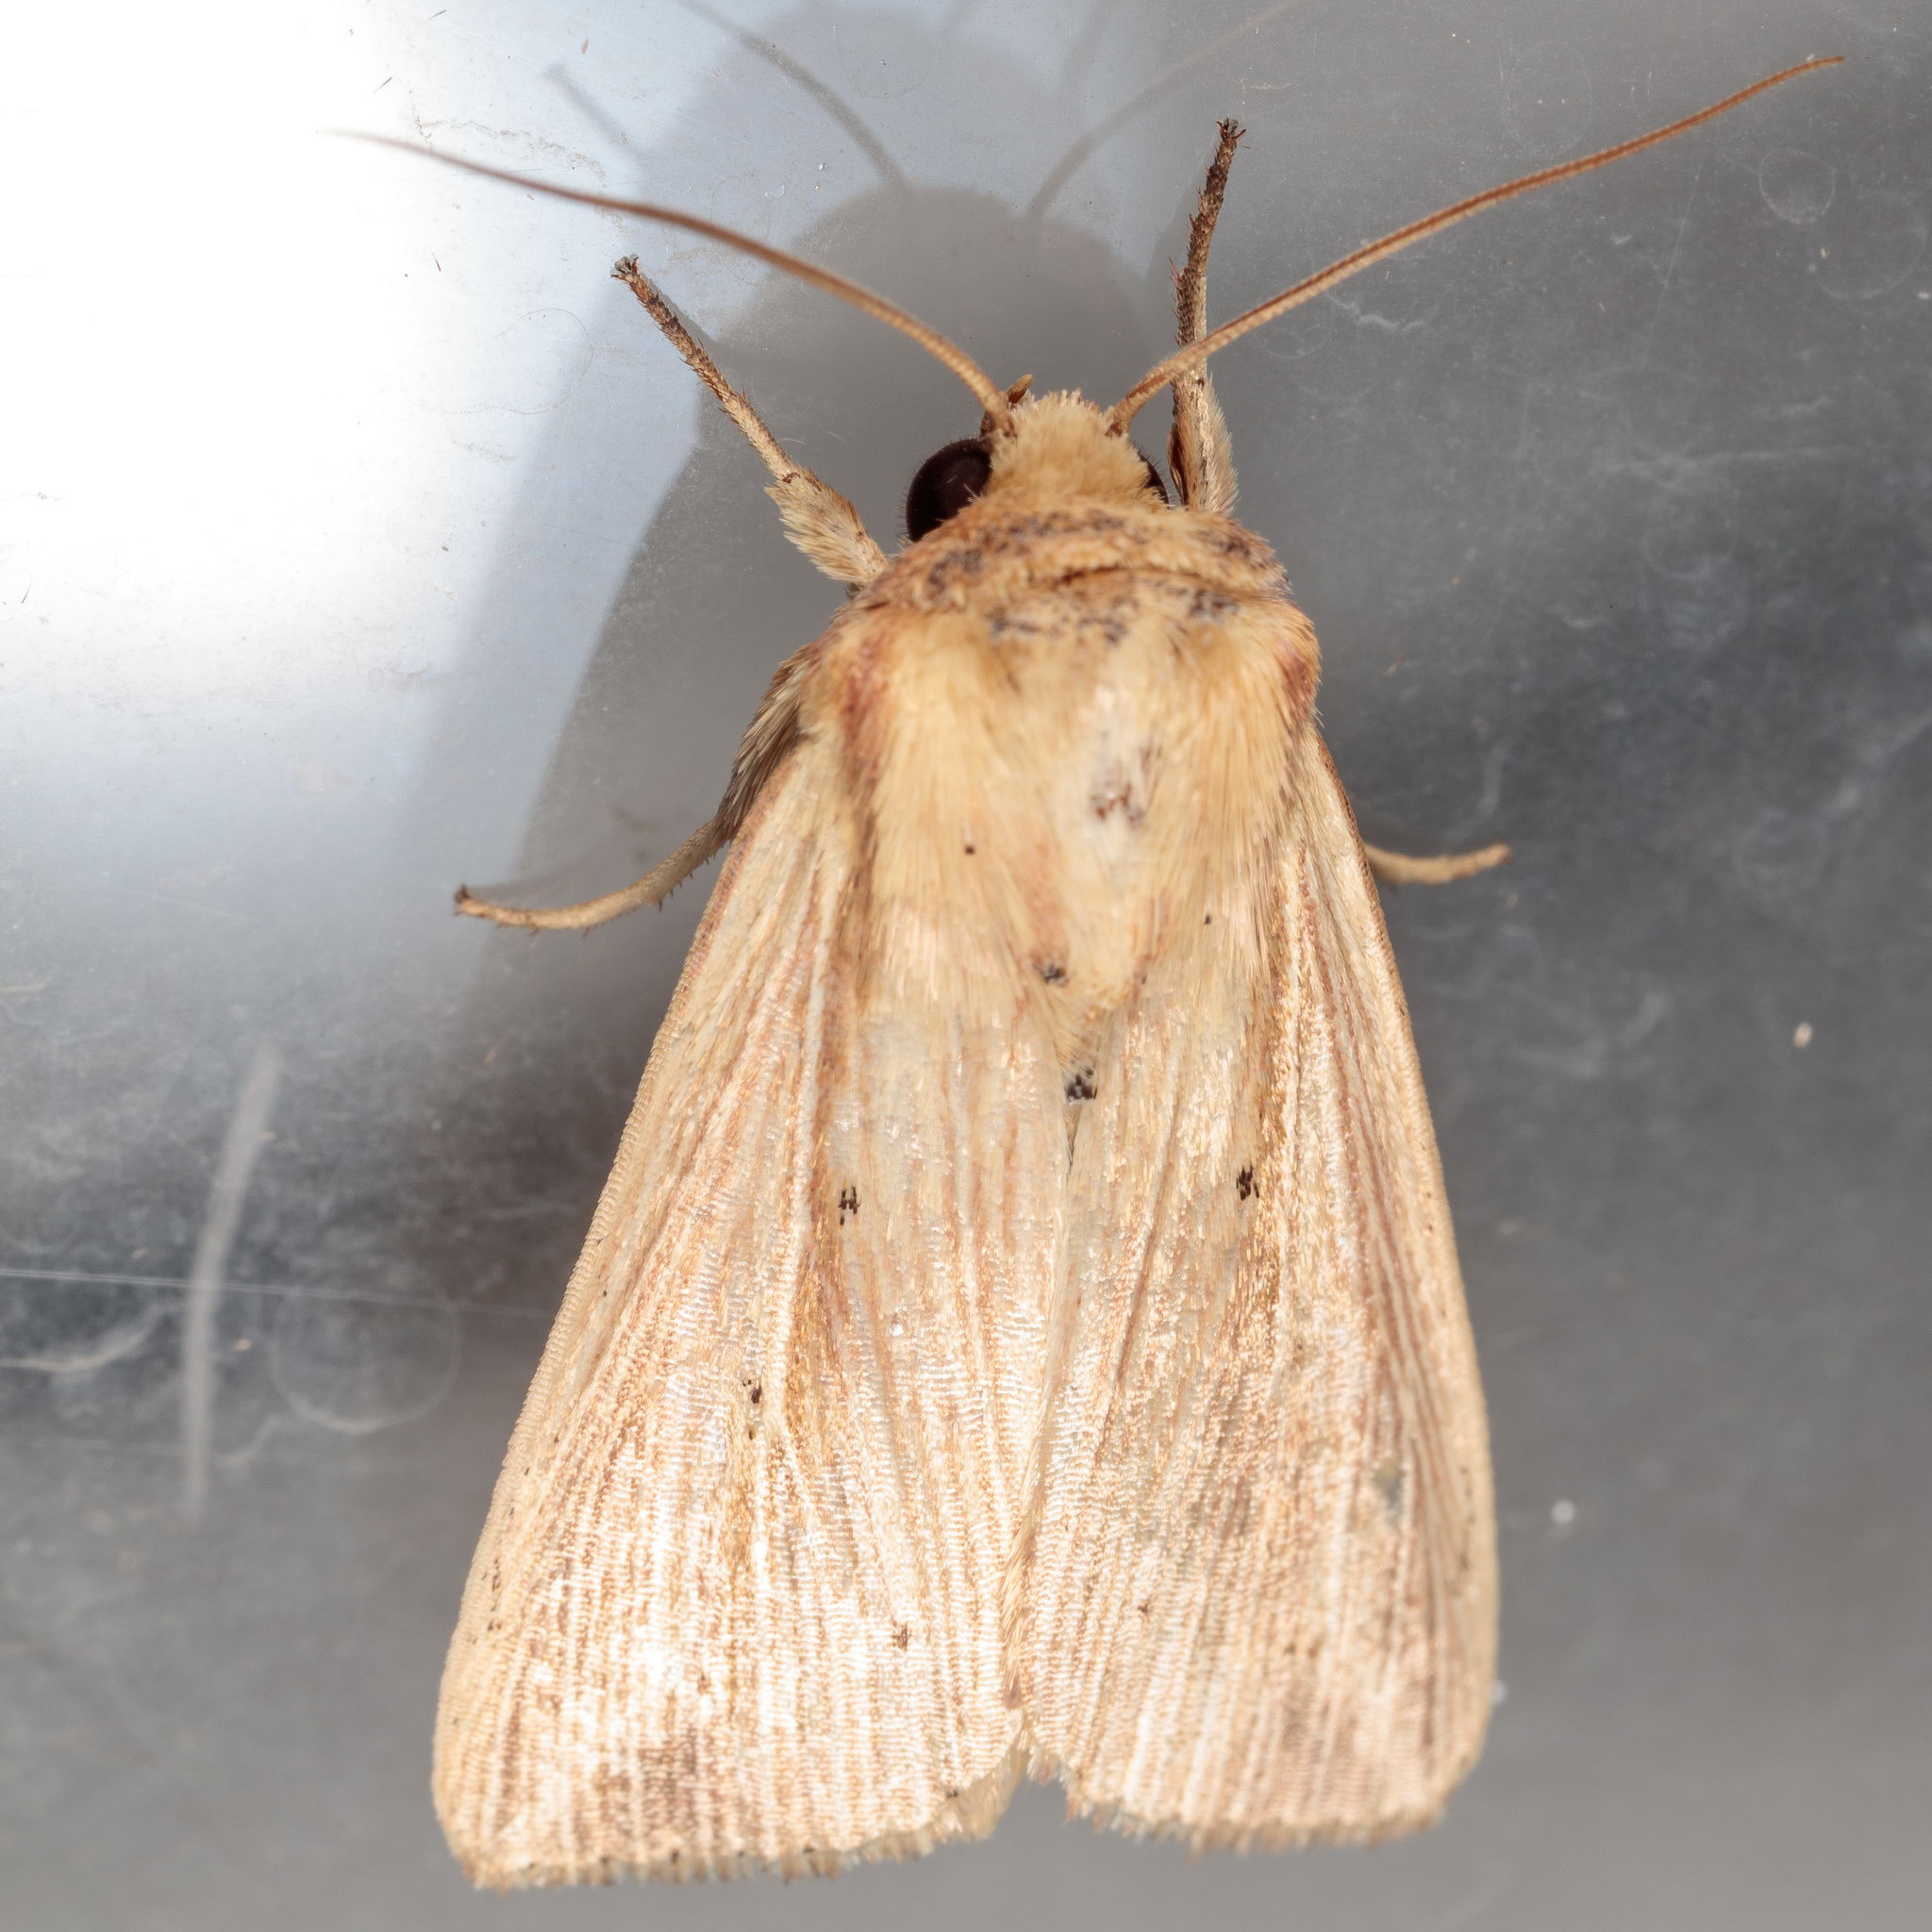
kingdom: Animalia
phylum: Arthropoda
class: Insecta
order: Lepidoptera
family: Noctuidae
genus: Leucania
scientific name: Leucania adjuta
